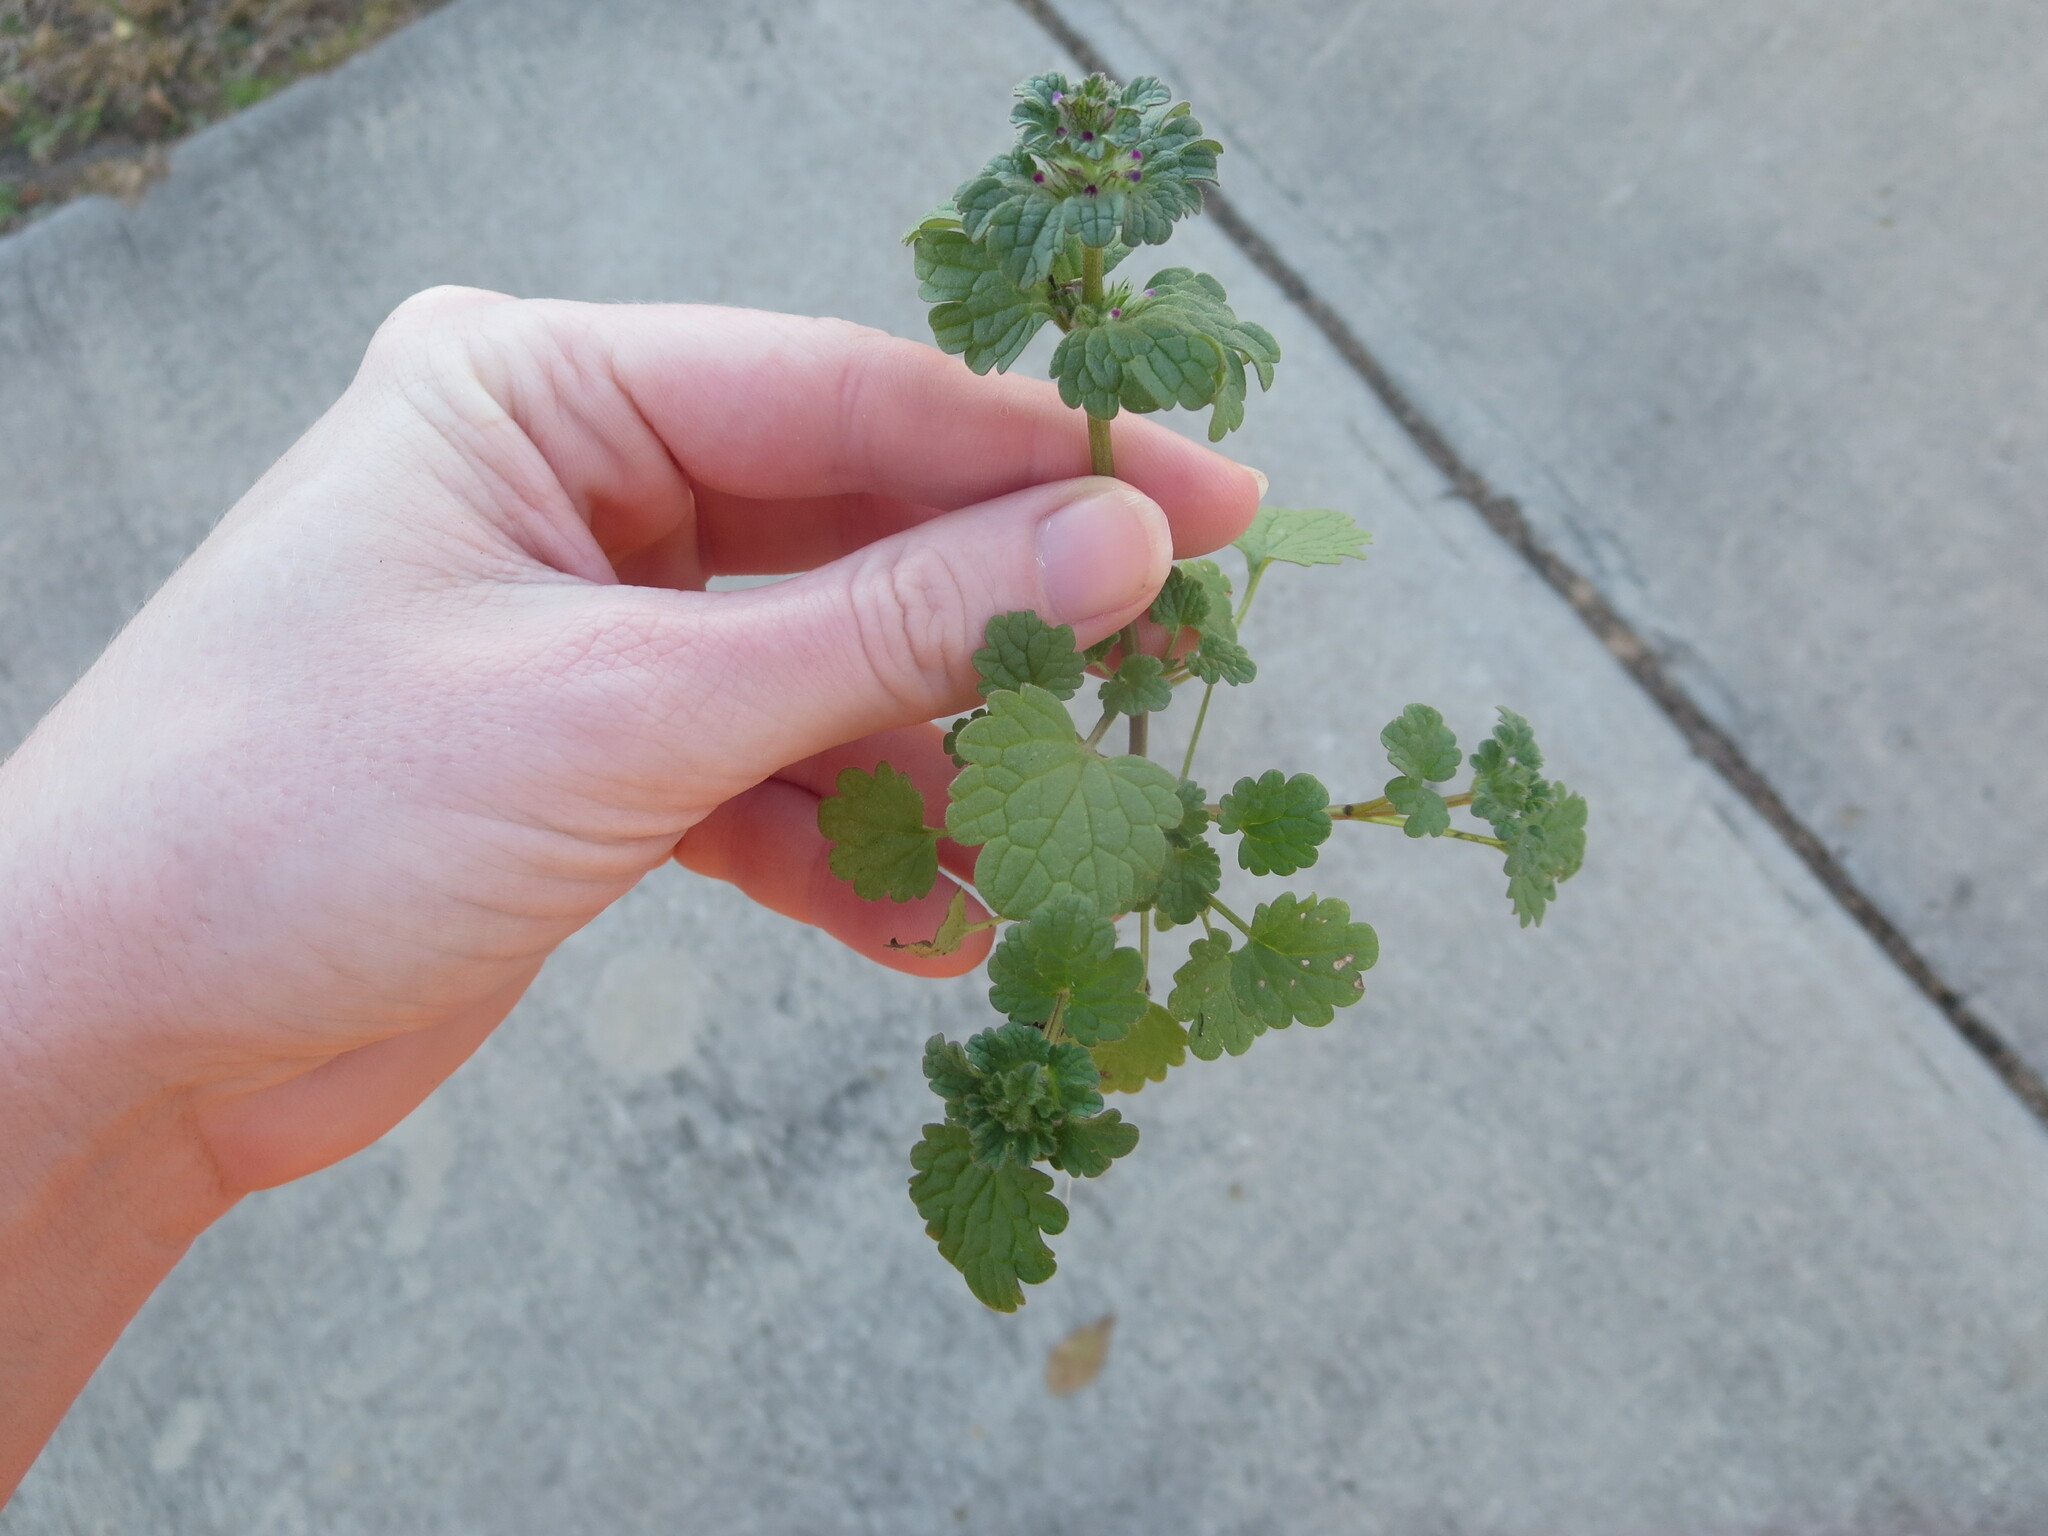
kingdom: Plantae
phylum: Tracheophyta
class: Magnoliopsida
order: Lamiales
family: Lamiaceae
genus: Lamium
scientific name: Lamium amplexicaule
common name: Henbit dead-nettle
